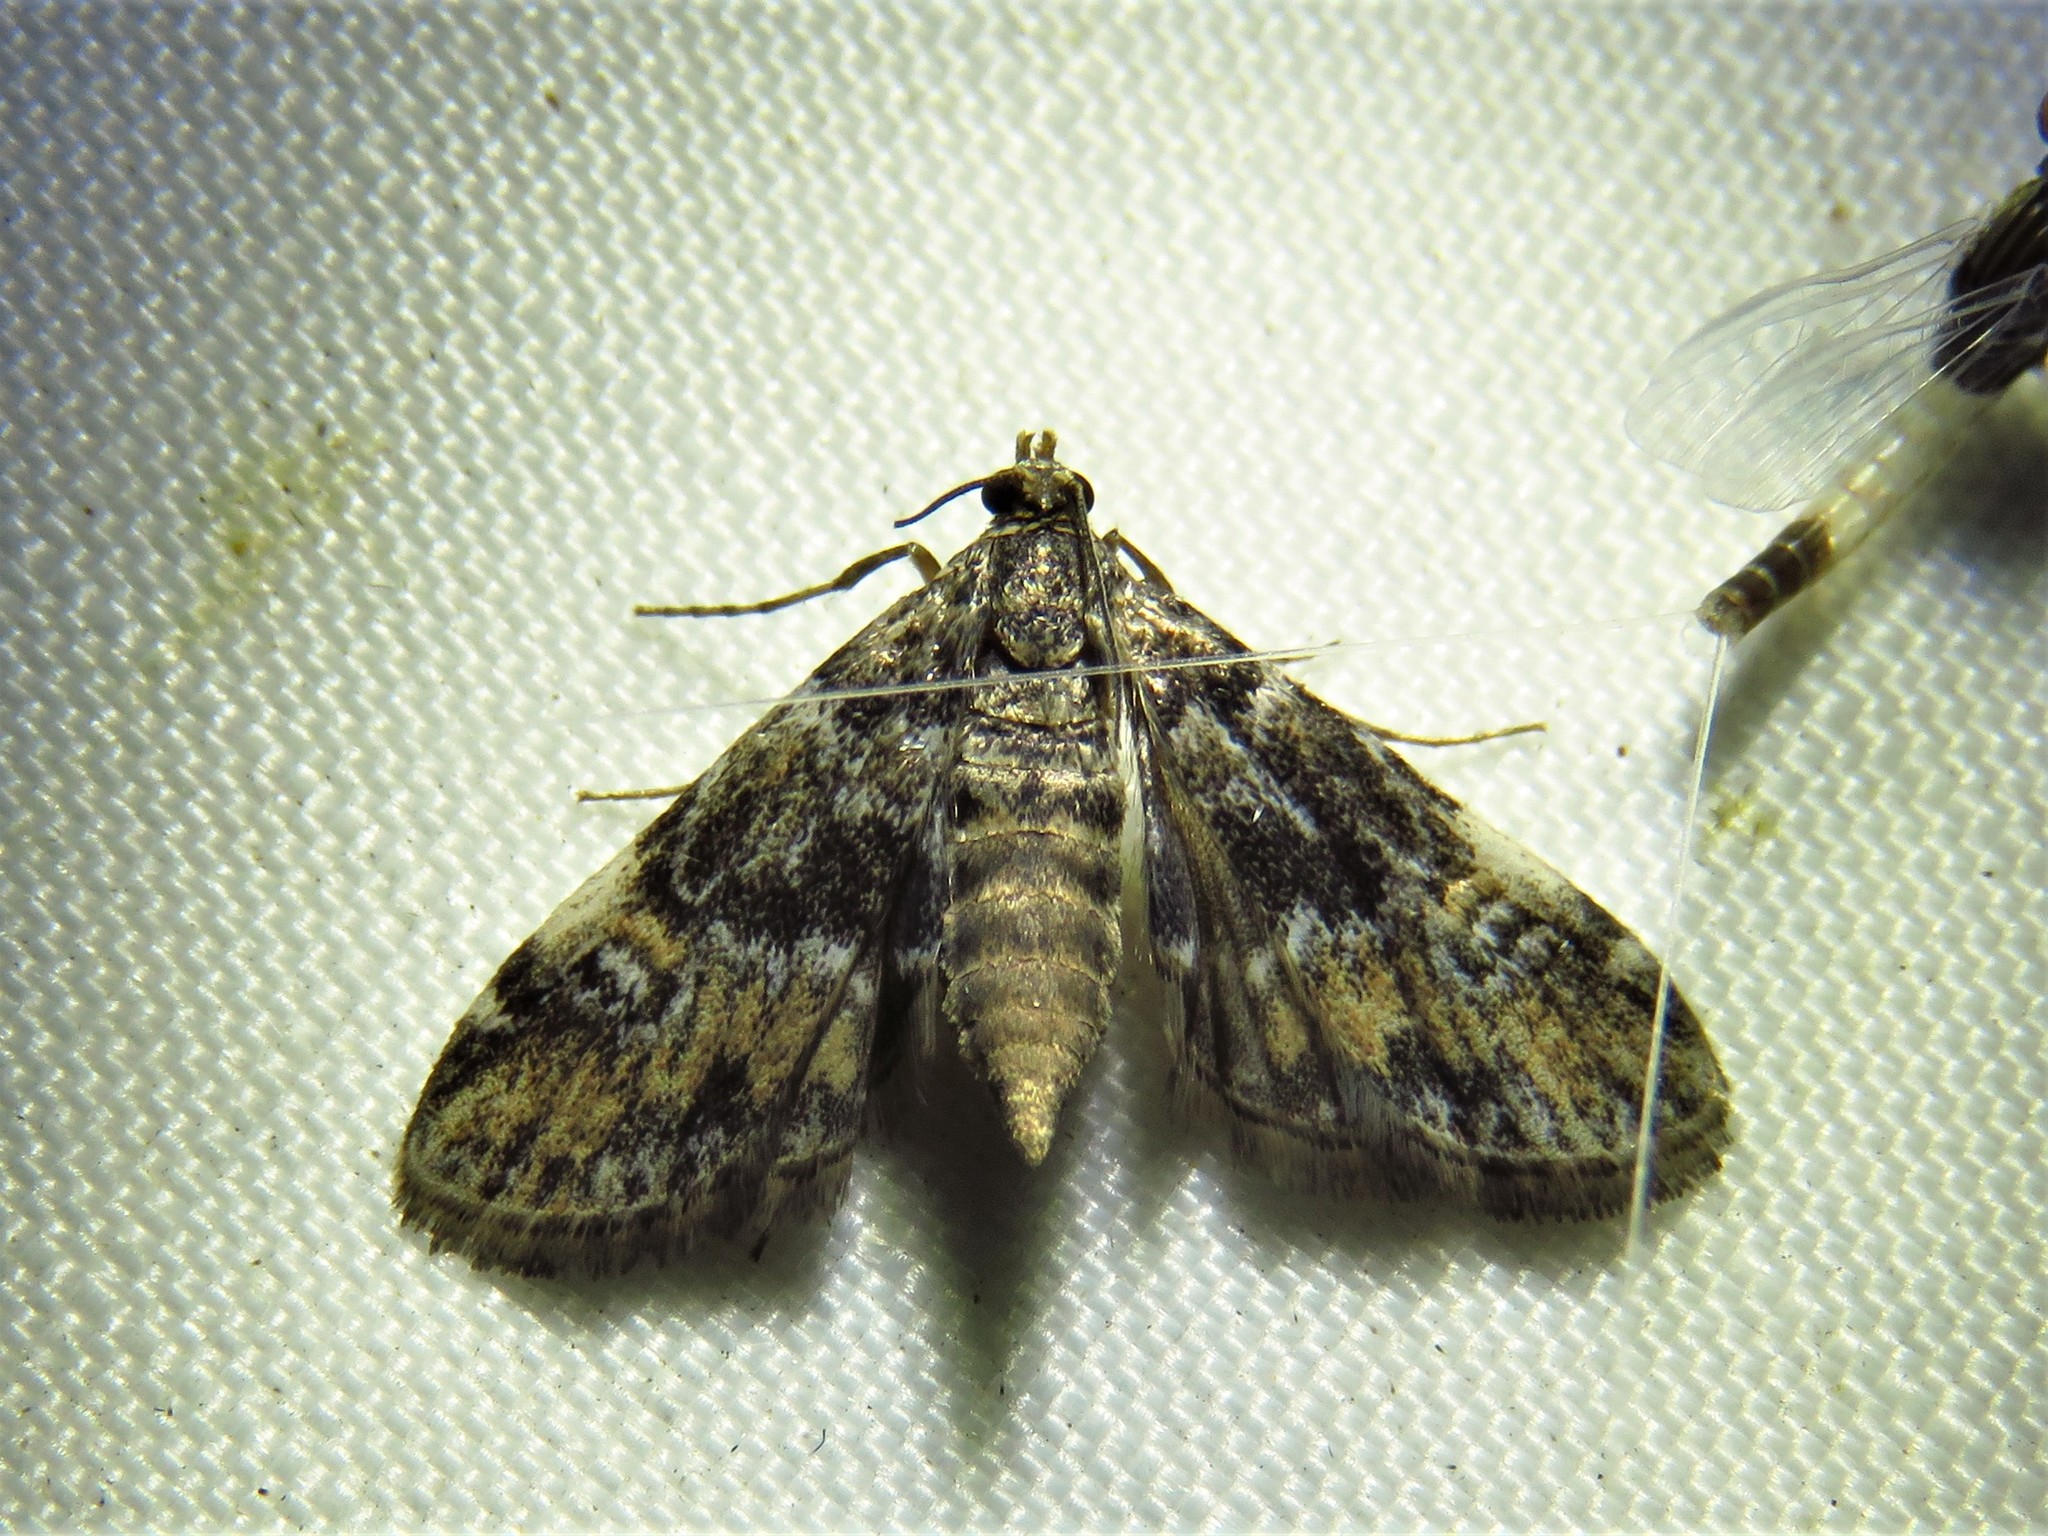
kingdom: Animalia
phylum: Arthropoda
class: Insecta
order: Lepidoptera
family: Crambidae
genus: Elophila
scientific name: Elophila obliteralis
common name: Waterlily leafcutter moth
